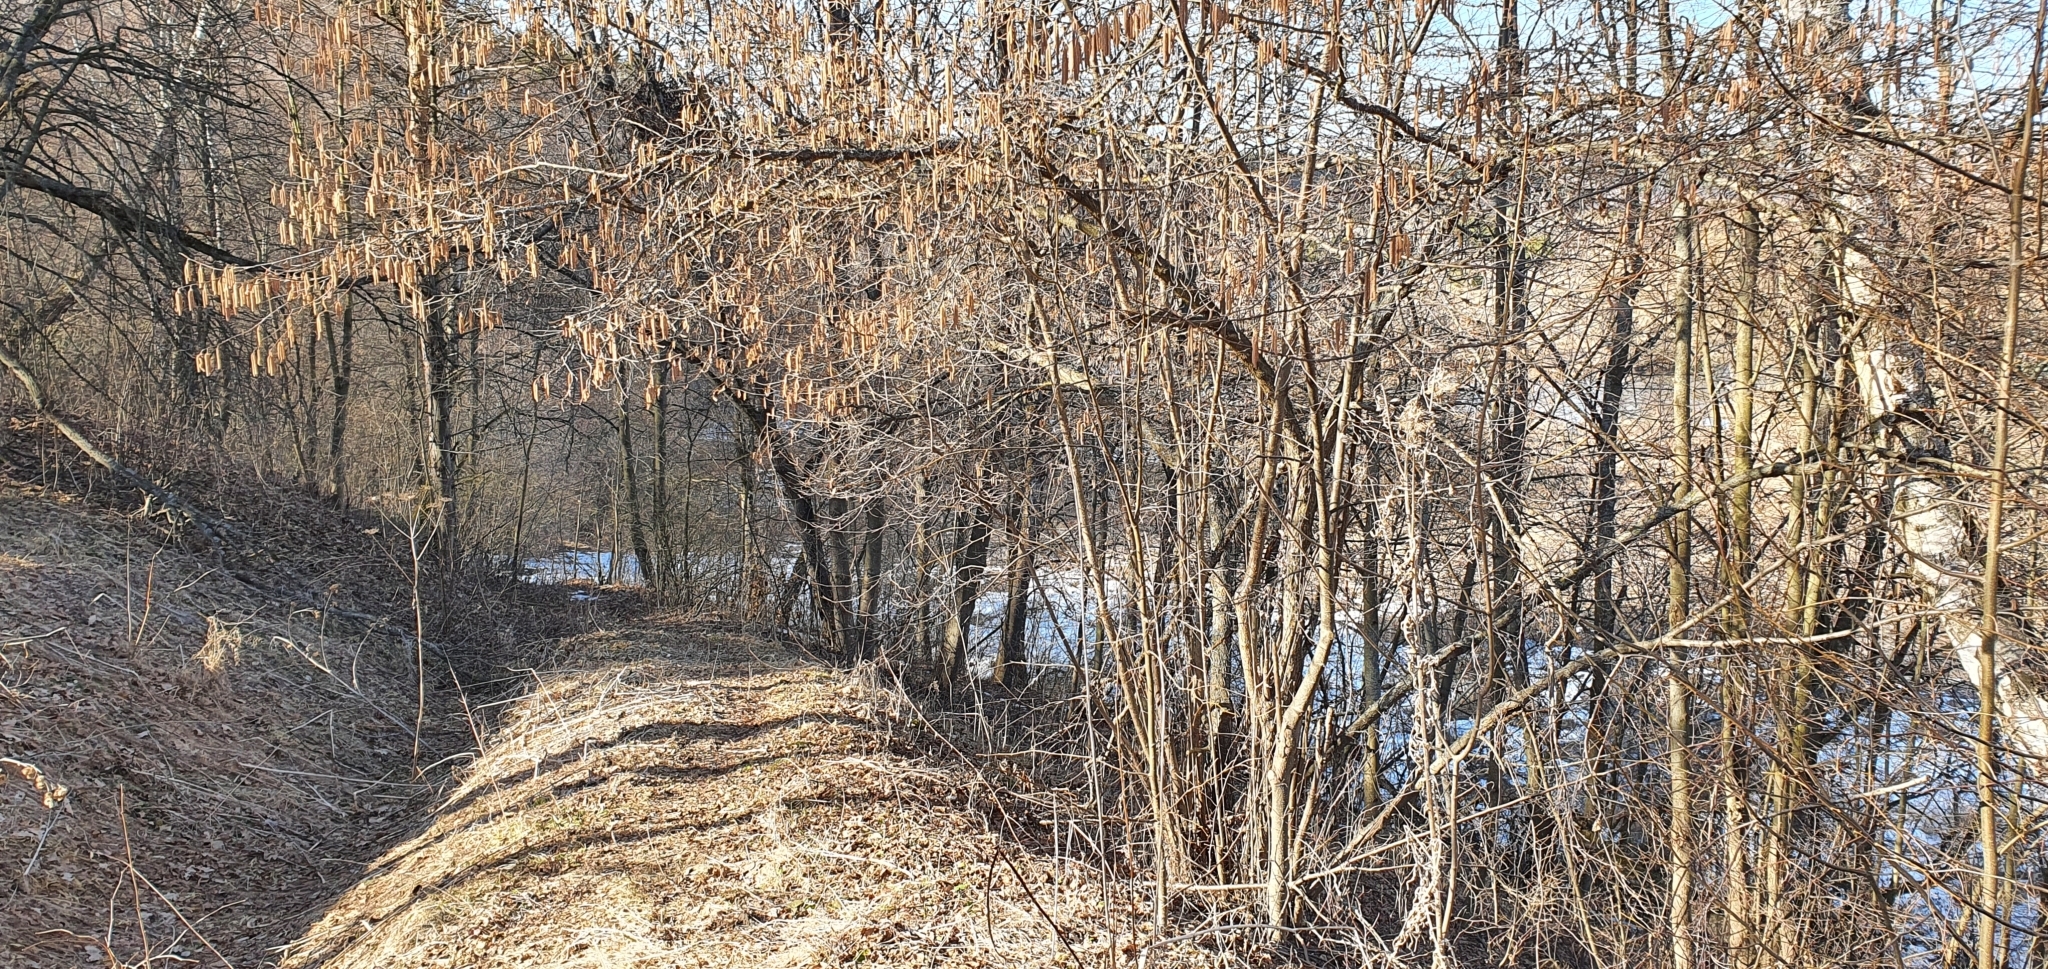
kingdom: Plantae
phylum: Tracheophyta
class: Magnoliopsida
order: Fagales
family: Betulaceae
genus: Corylus
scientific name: Corylus avellana
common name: European hazel
